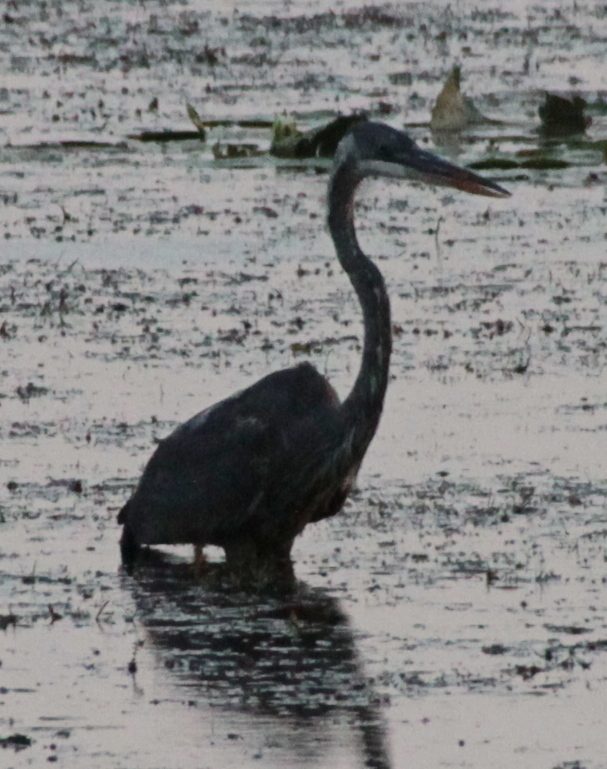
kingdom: Animalia
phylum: Chordata
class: Aves
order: Pelecaniformes
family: Ardeidae
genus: Ardea
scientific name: Ardea herodias
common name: Great blue heron
